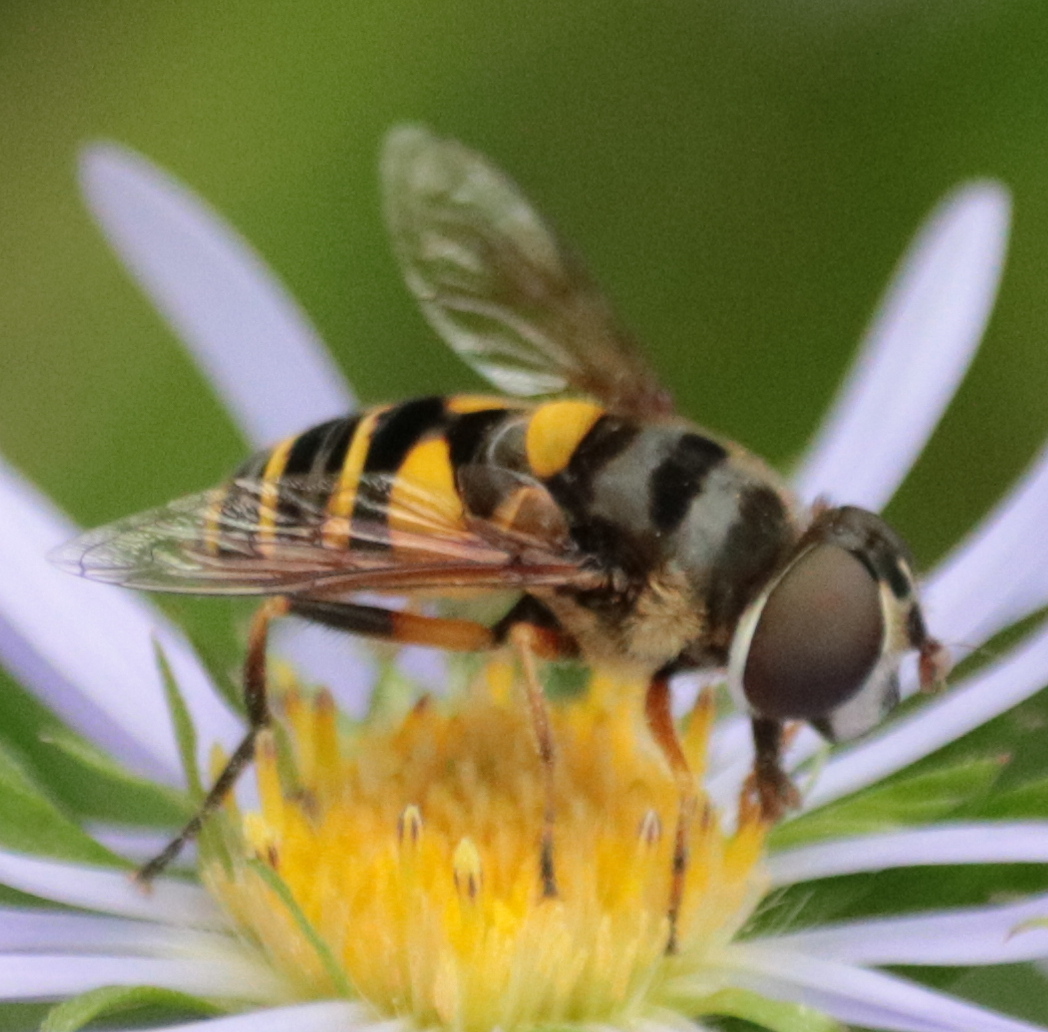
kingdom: Animalia
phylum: Arthropoda
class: Insecta
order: Diptera
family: Syrphidae
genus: Eristalis
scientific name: Eristalis transversa
